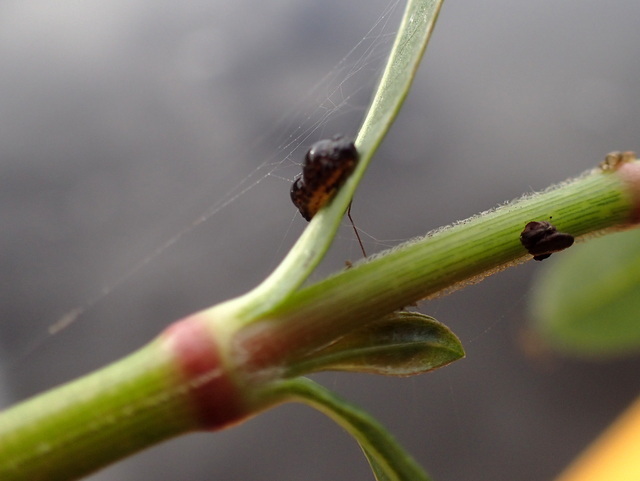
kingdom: Animalia
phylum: Arthropoda
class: Insecta
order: Coleoptera
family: Chrysomelidae
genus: Agasicles
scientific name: Agasicles hygrophila
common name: Alligatorweed flea beetle
